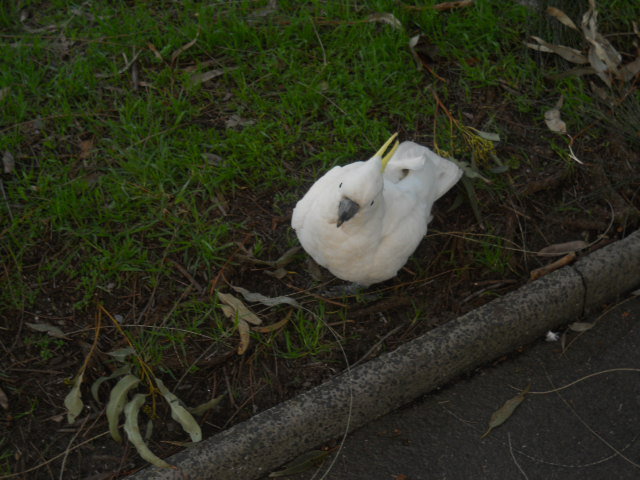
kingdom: Animalia
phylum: Chordata
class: Aves
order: Psittaciformes
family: Psittacidae
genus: Cacatua
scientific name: Cacatua galerita
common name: Sulphur-crested cockatoo
